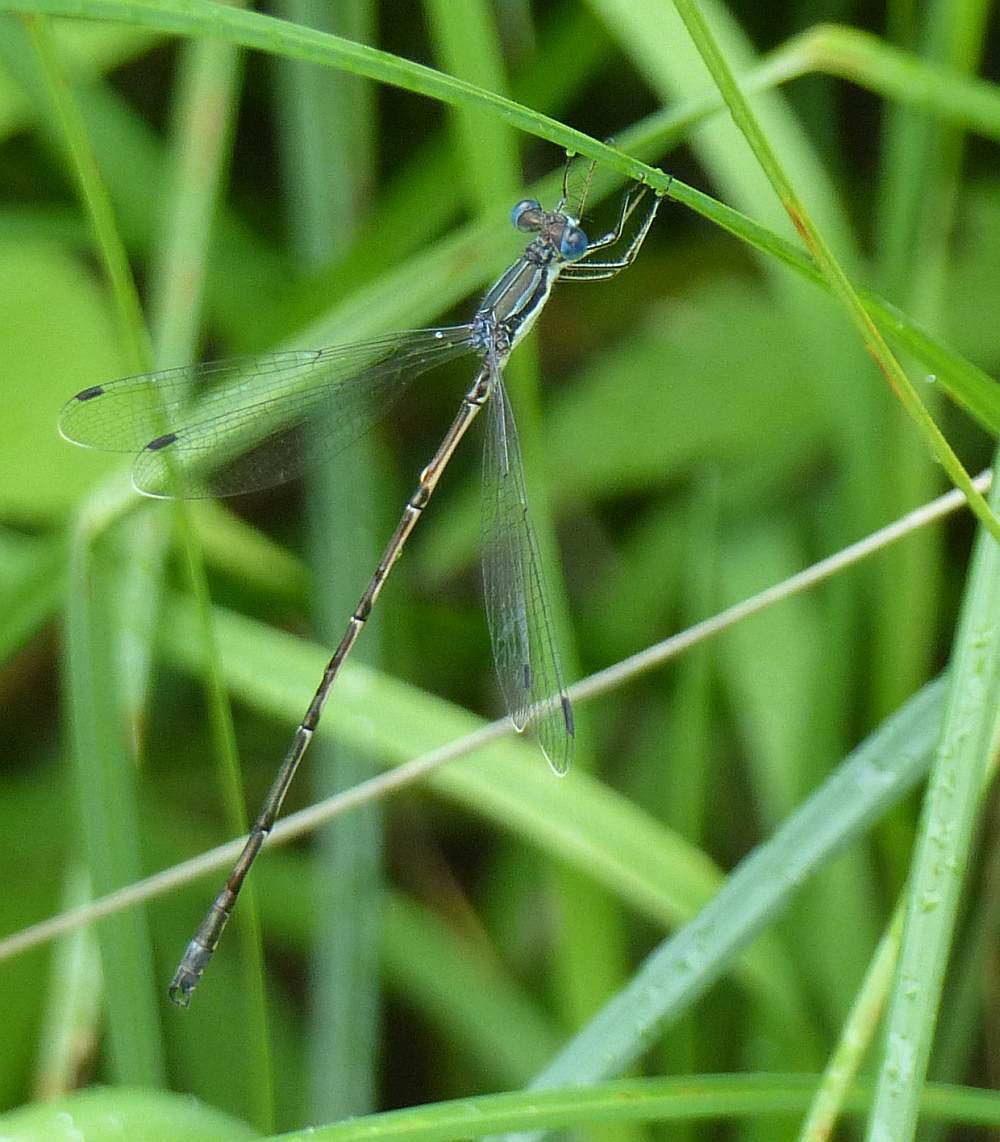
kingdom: Animalia
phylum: Arthropoda
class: Insecta
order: Odonata
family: Lestidae
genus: Lestes
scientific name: Lestes rectangularis
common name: Slender spreadwing
